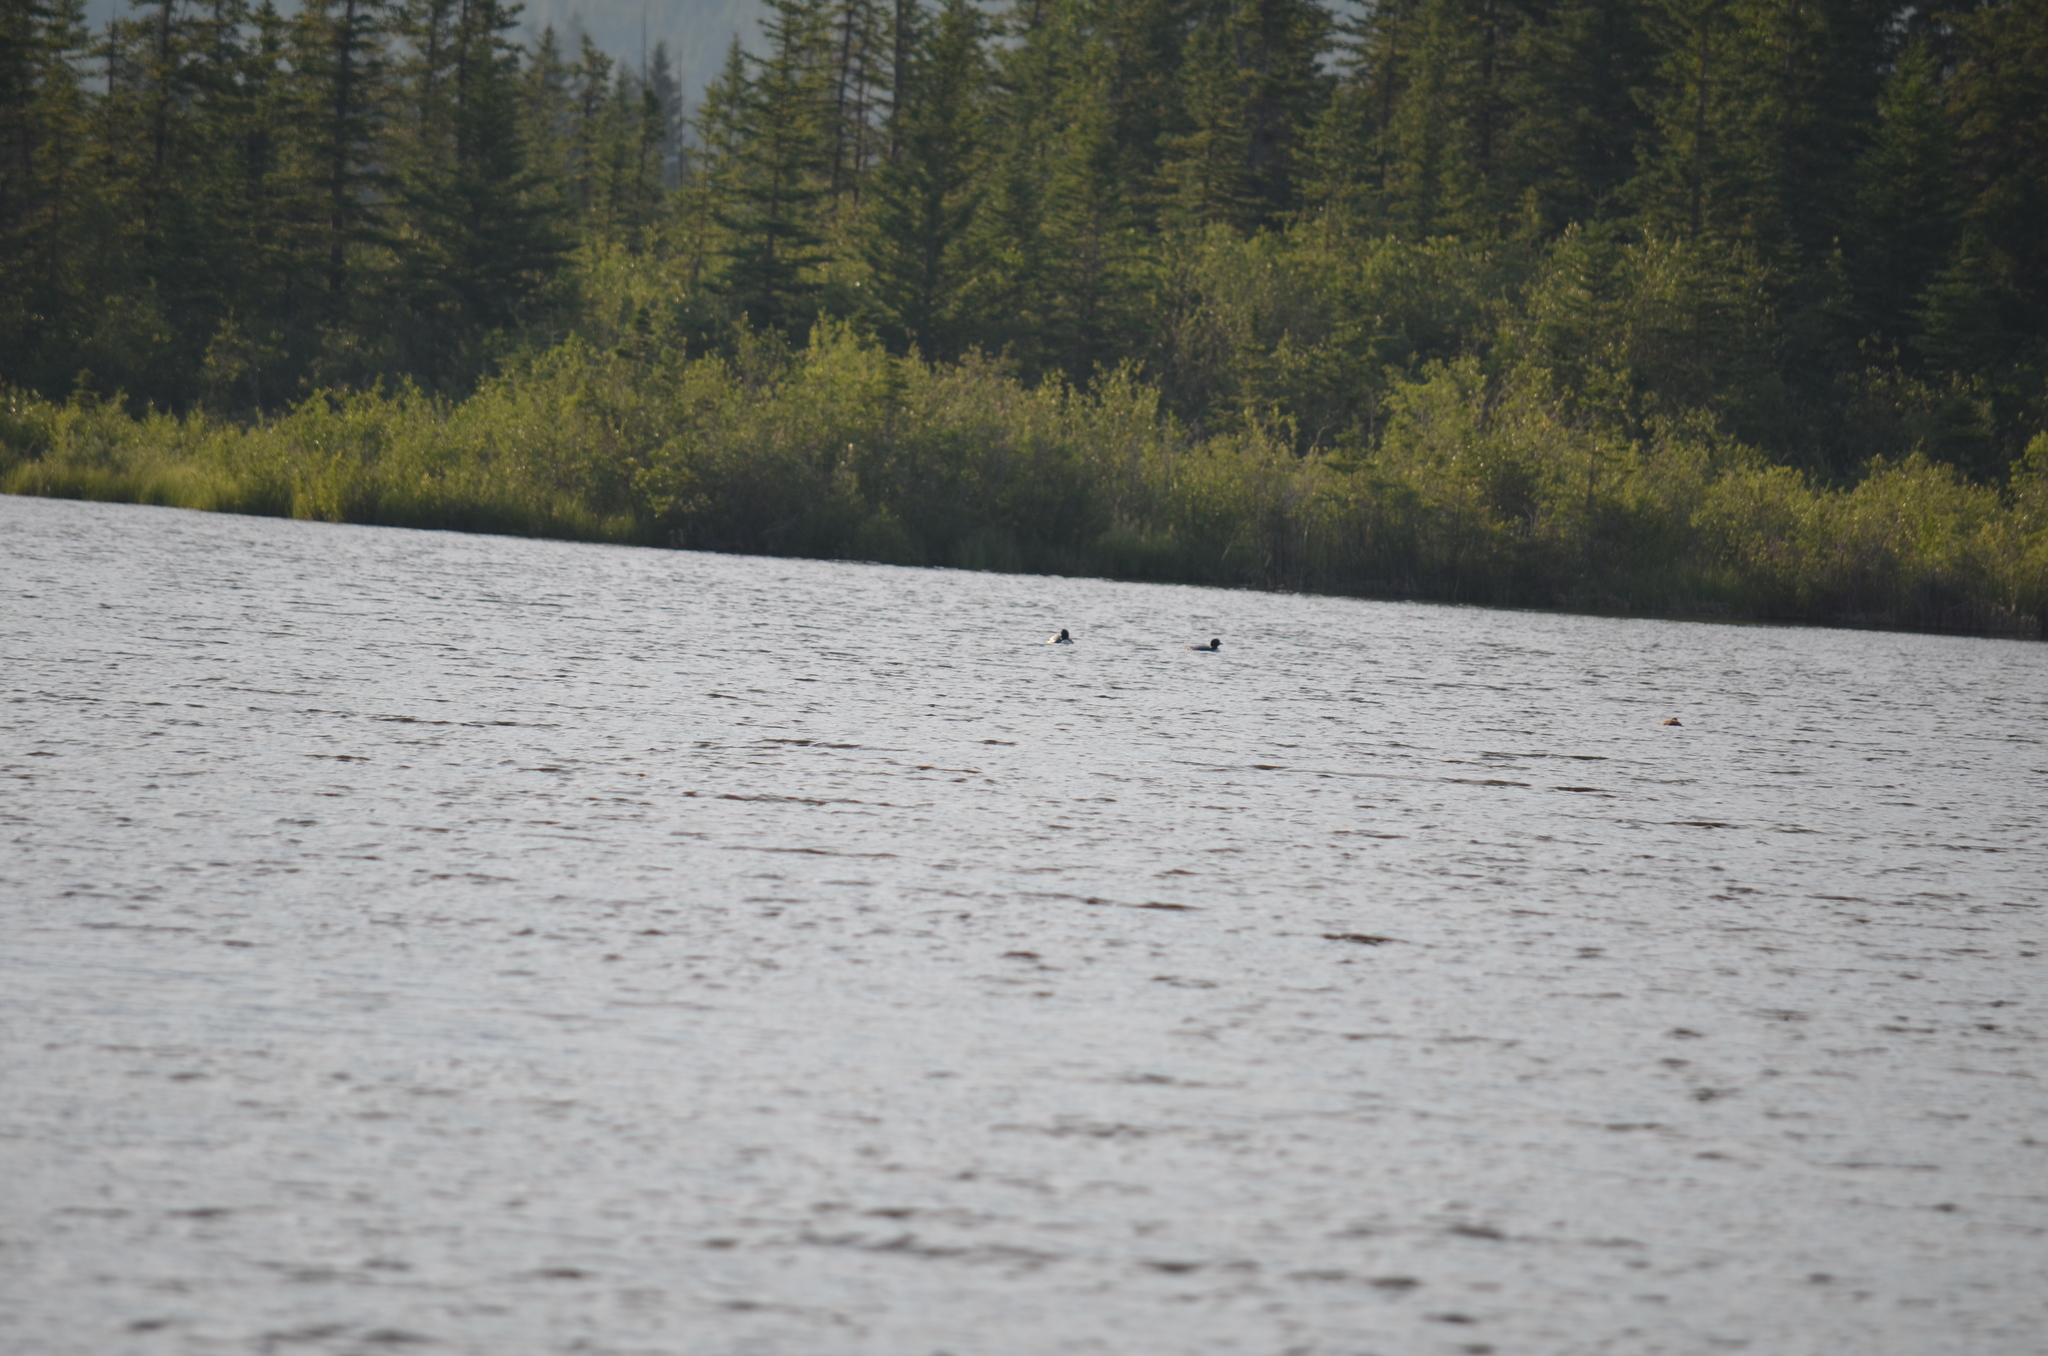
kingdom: Animalia
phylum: Chordata
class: Aves
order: Gaviiformes
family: Gaviidae
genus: Gavia
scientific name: Gavia immer
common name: Common loon
